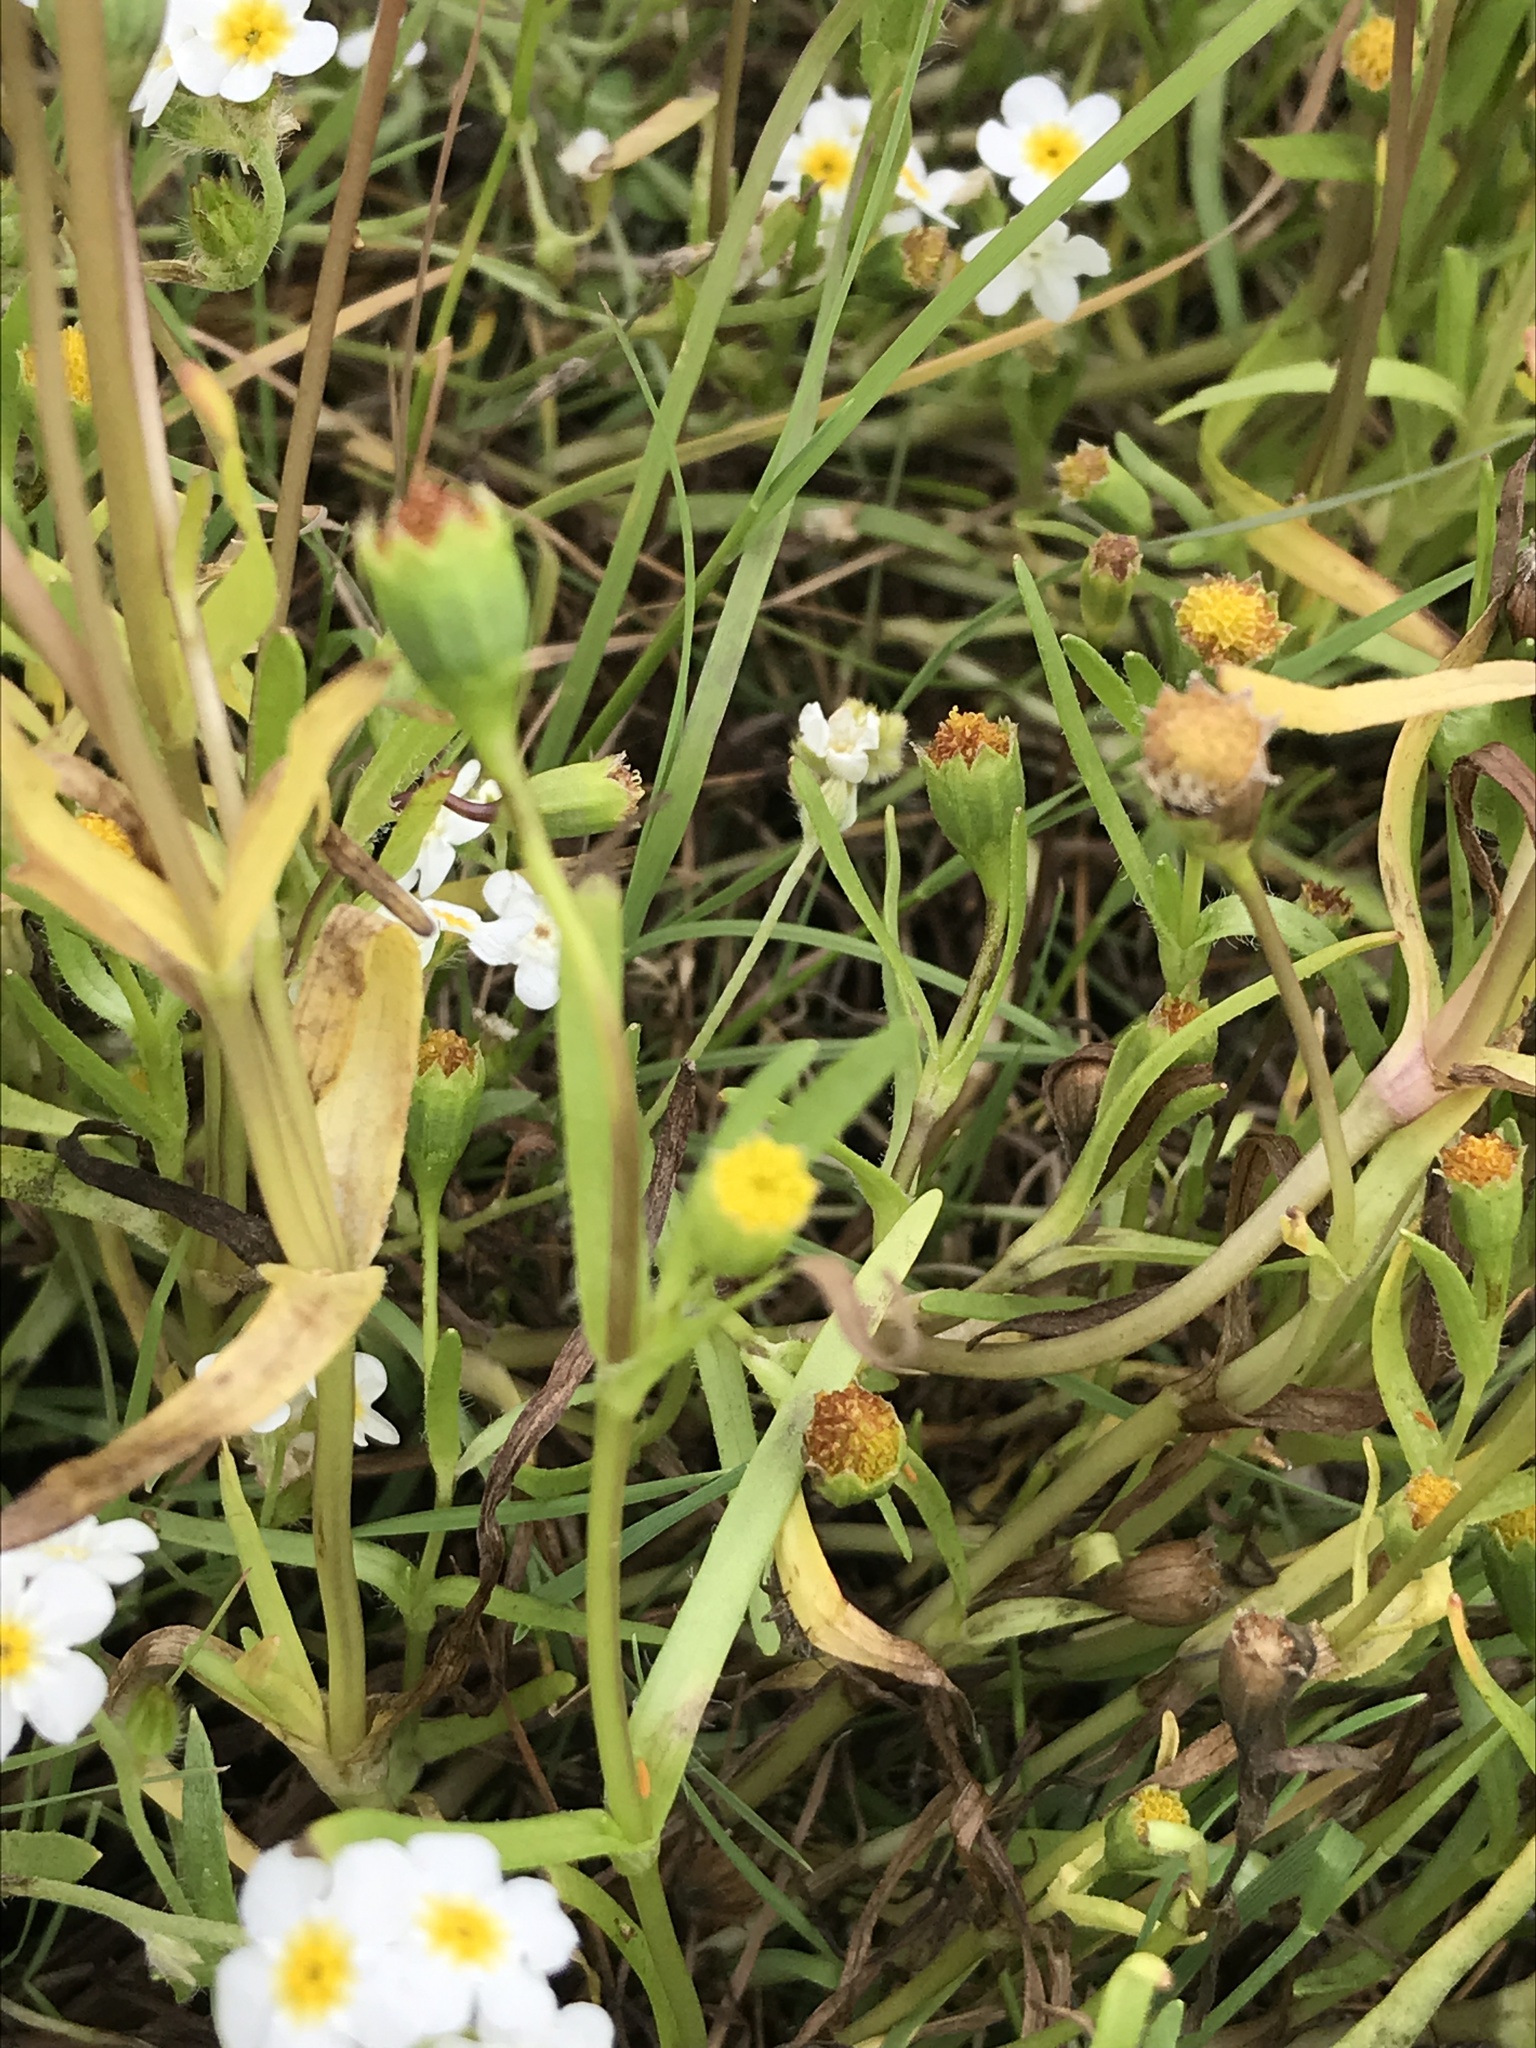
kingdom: Plantae
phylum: Tracheophyta
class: Magnoliopsida
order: Asterales
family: Asteraceae
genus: Lasthenia
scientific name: Lasthenia glaberrima
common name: Smooth goldfields
